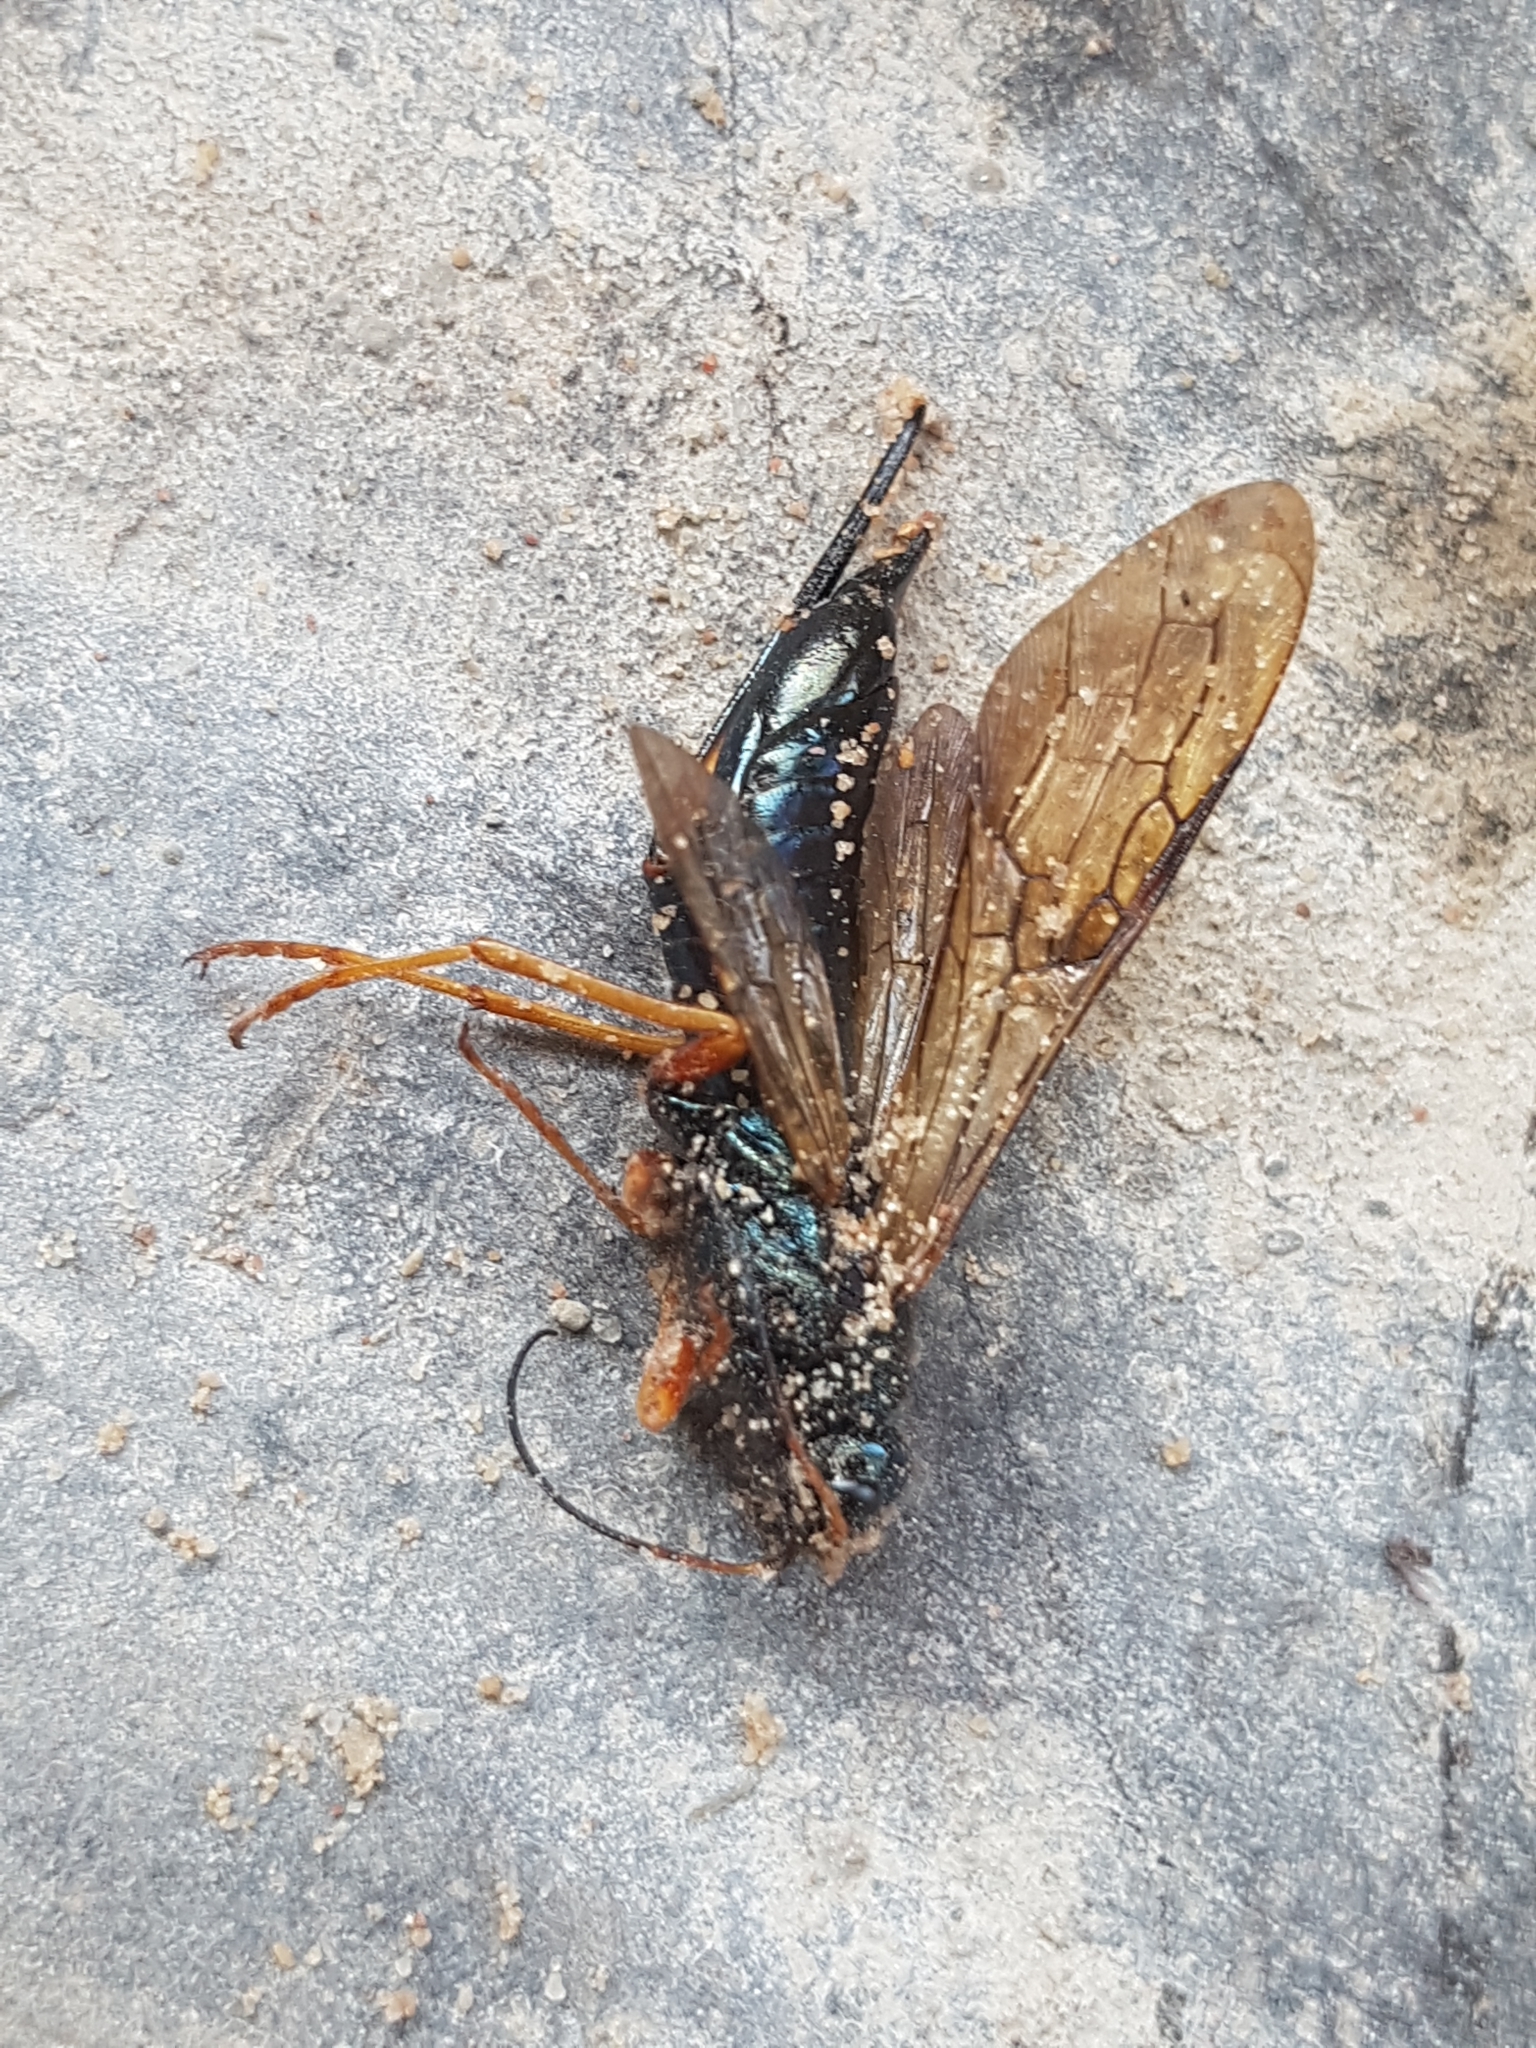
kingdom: Animalia
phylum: Arthropoda
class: Insecta
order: Hymenoptera
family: Siricidae
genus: Sirex
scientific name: Sirex juvencus
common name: Blue horntail
